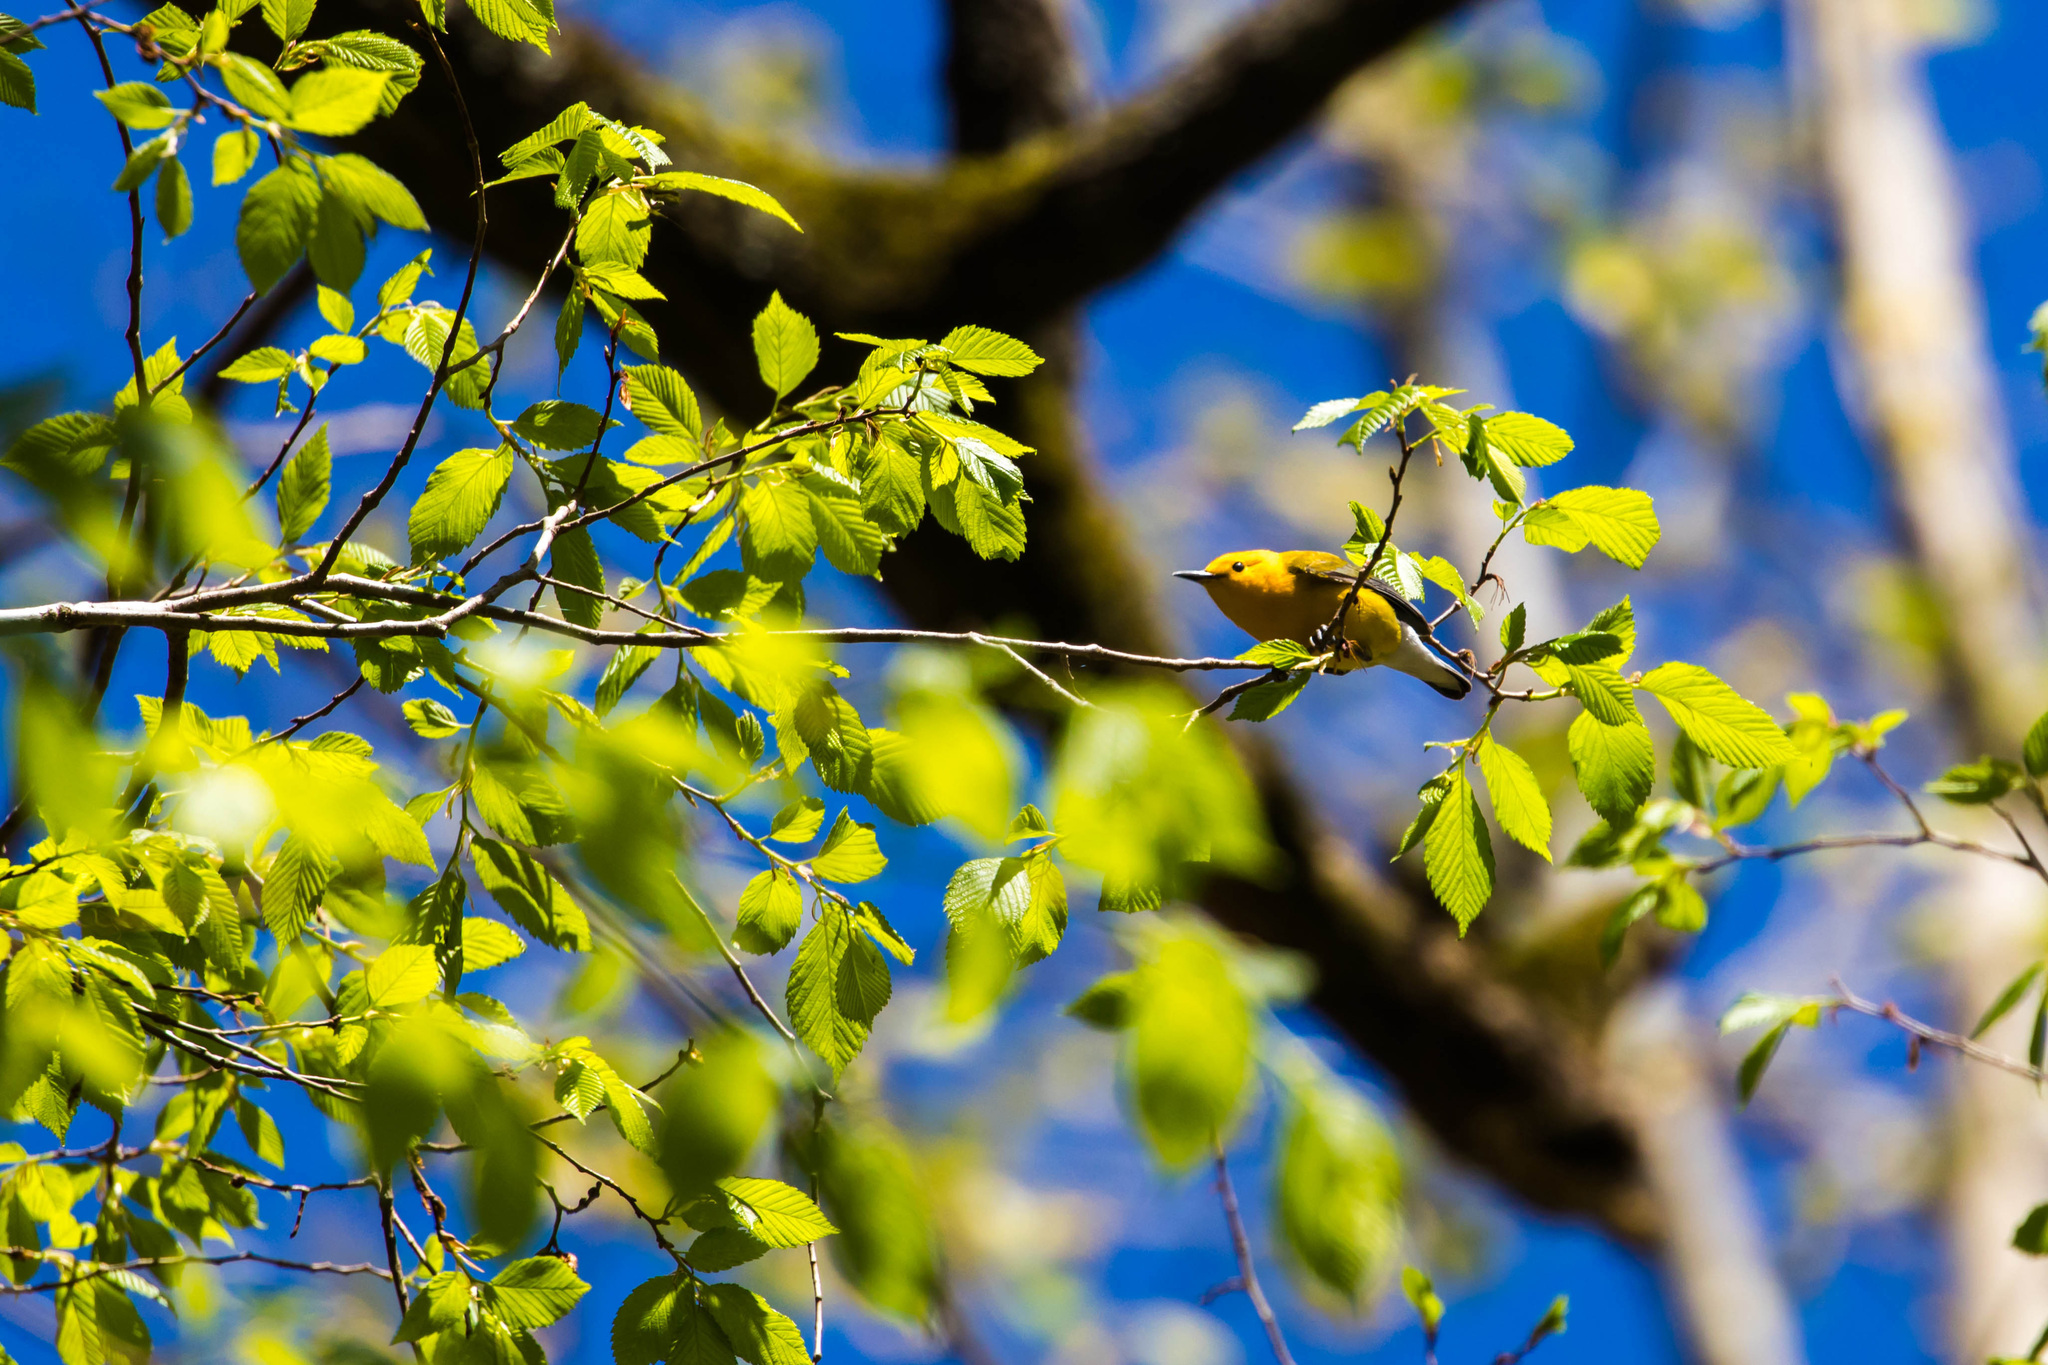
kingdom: Animalia
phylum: Chordata
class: Aves
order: Passeriformes
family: Parulidae
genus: Protonotaria
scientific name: Protonotaria citrea
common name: Prothonotary warbler
